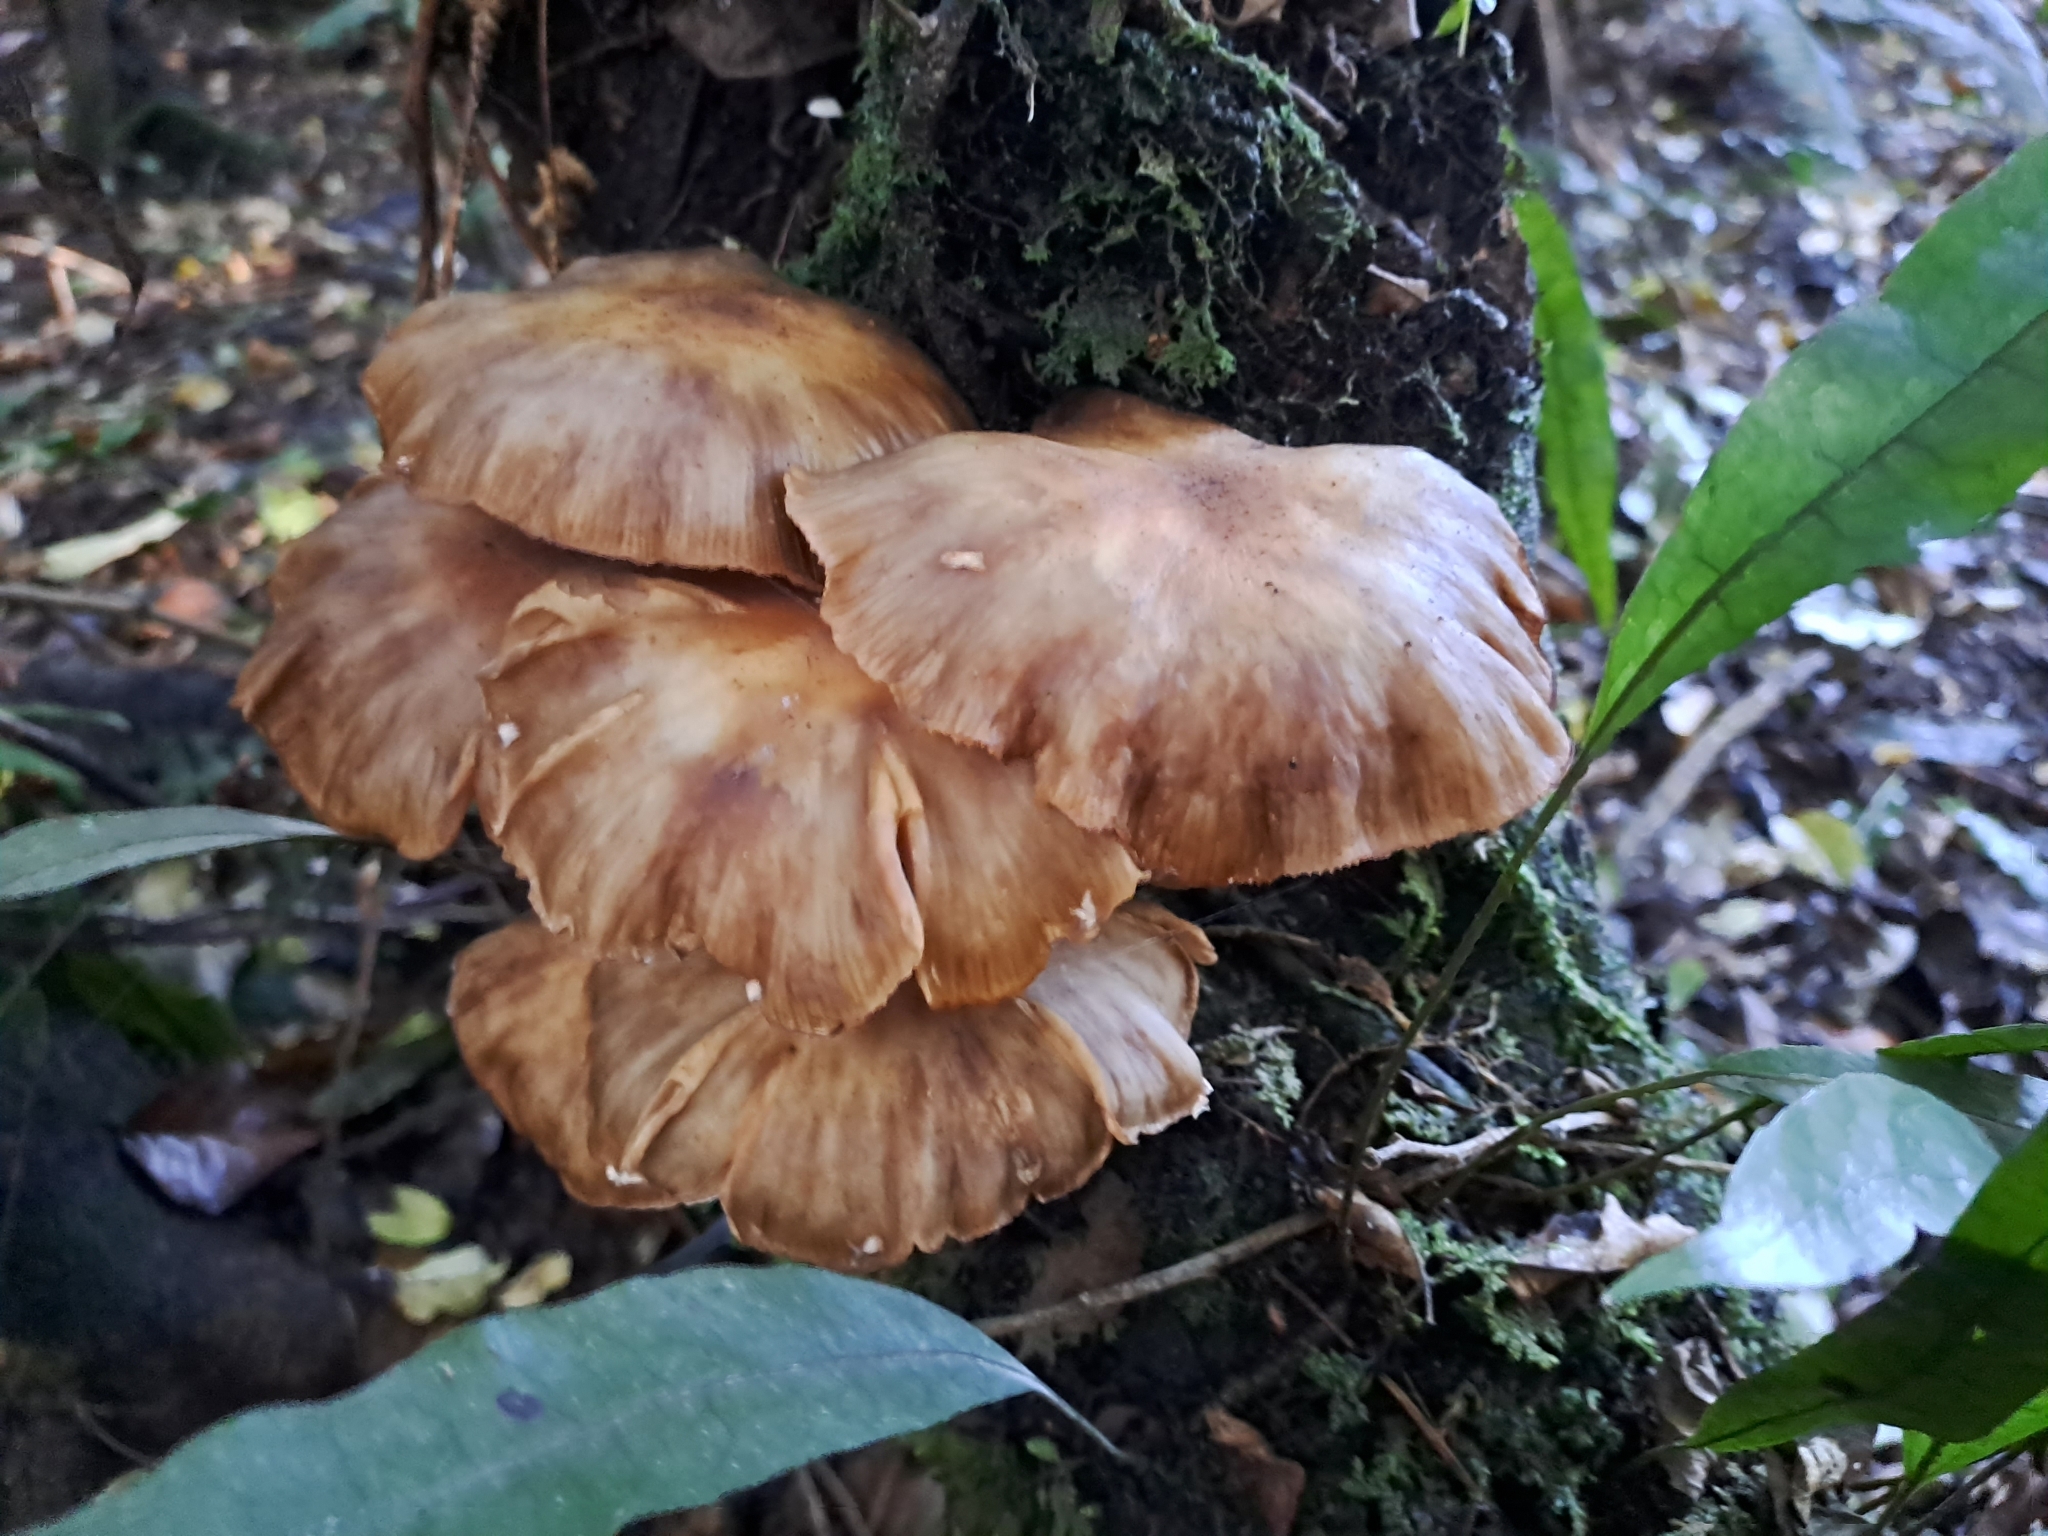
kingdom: Fungi
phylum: Basidiomycota
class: Agaricomycetes
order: Agaricales
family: Physalacriaceae
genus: Armillaria
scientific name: Armillaria novae-zelandiae
